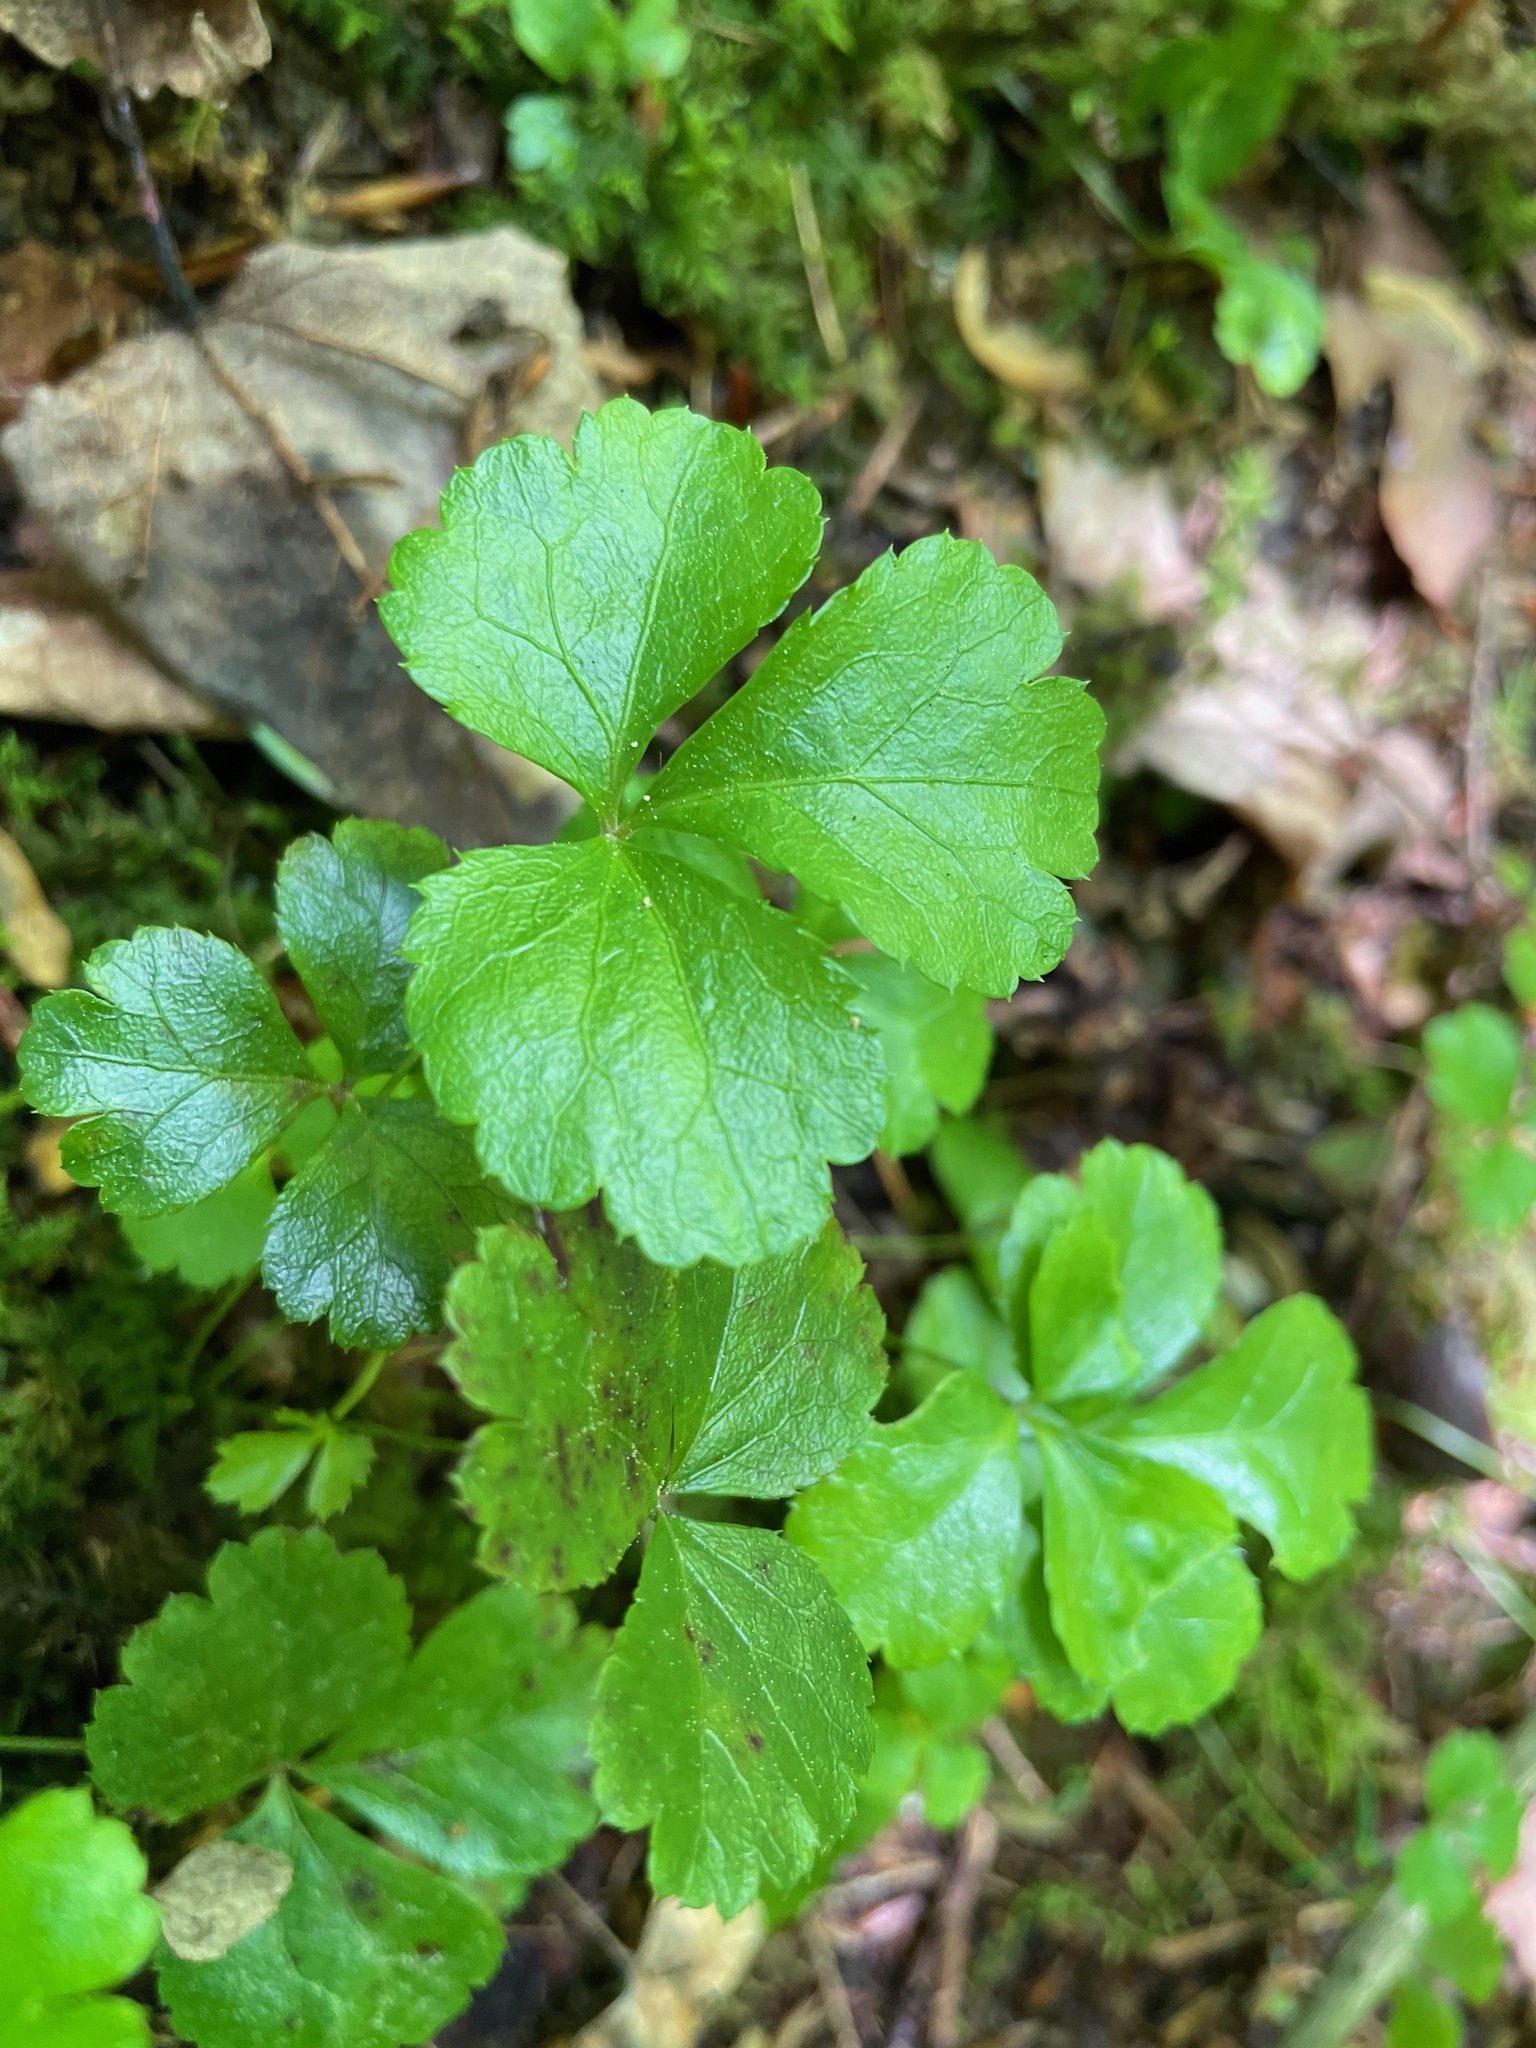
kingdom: Plantae
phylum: Tracheophyta
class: Magnoliopsida
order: Ranunculales
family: Ranunculaceae
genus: Coptis
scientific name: Coptis trifolia
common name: Canker-root
